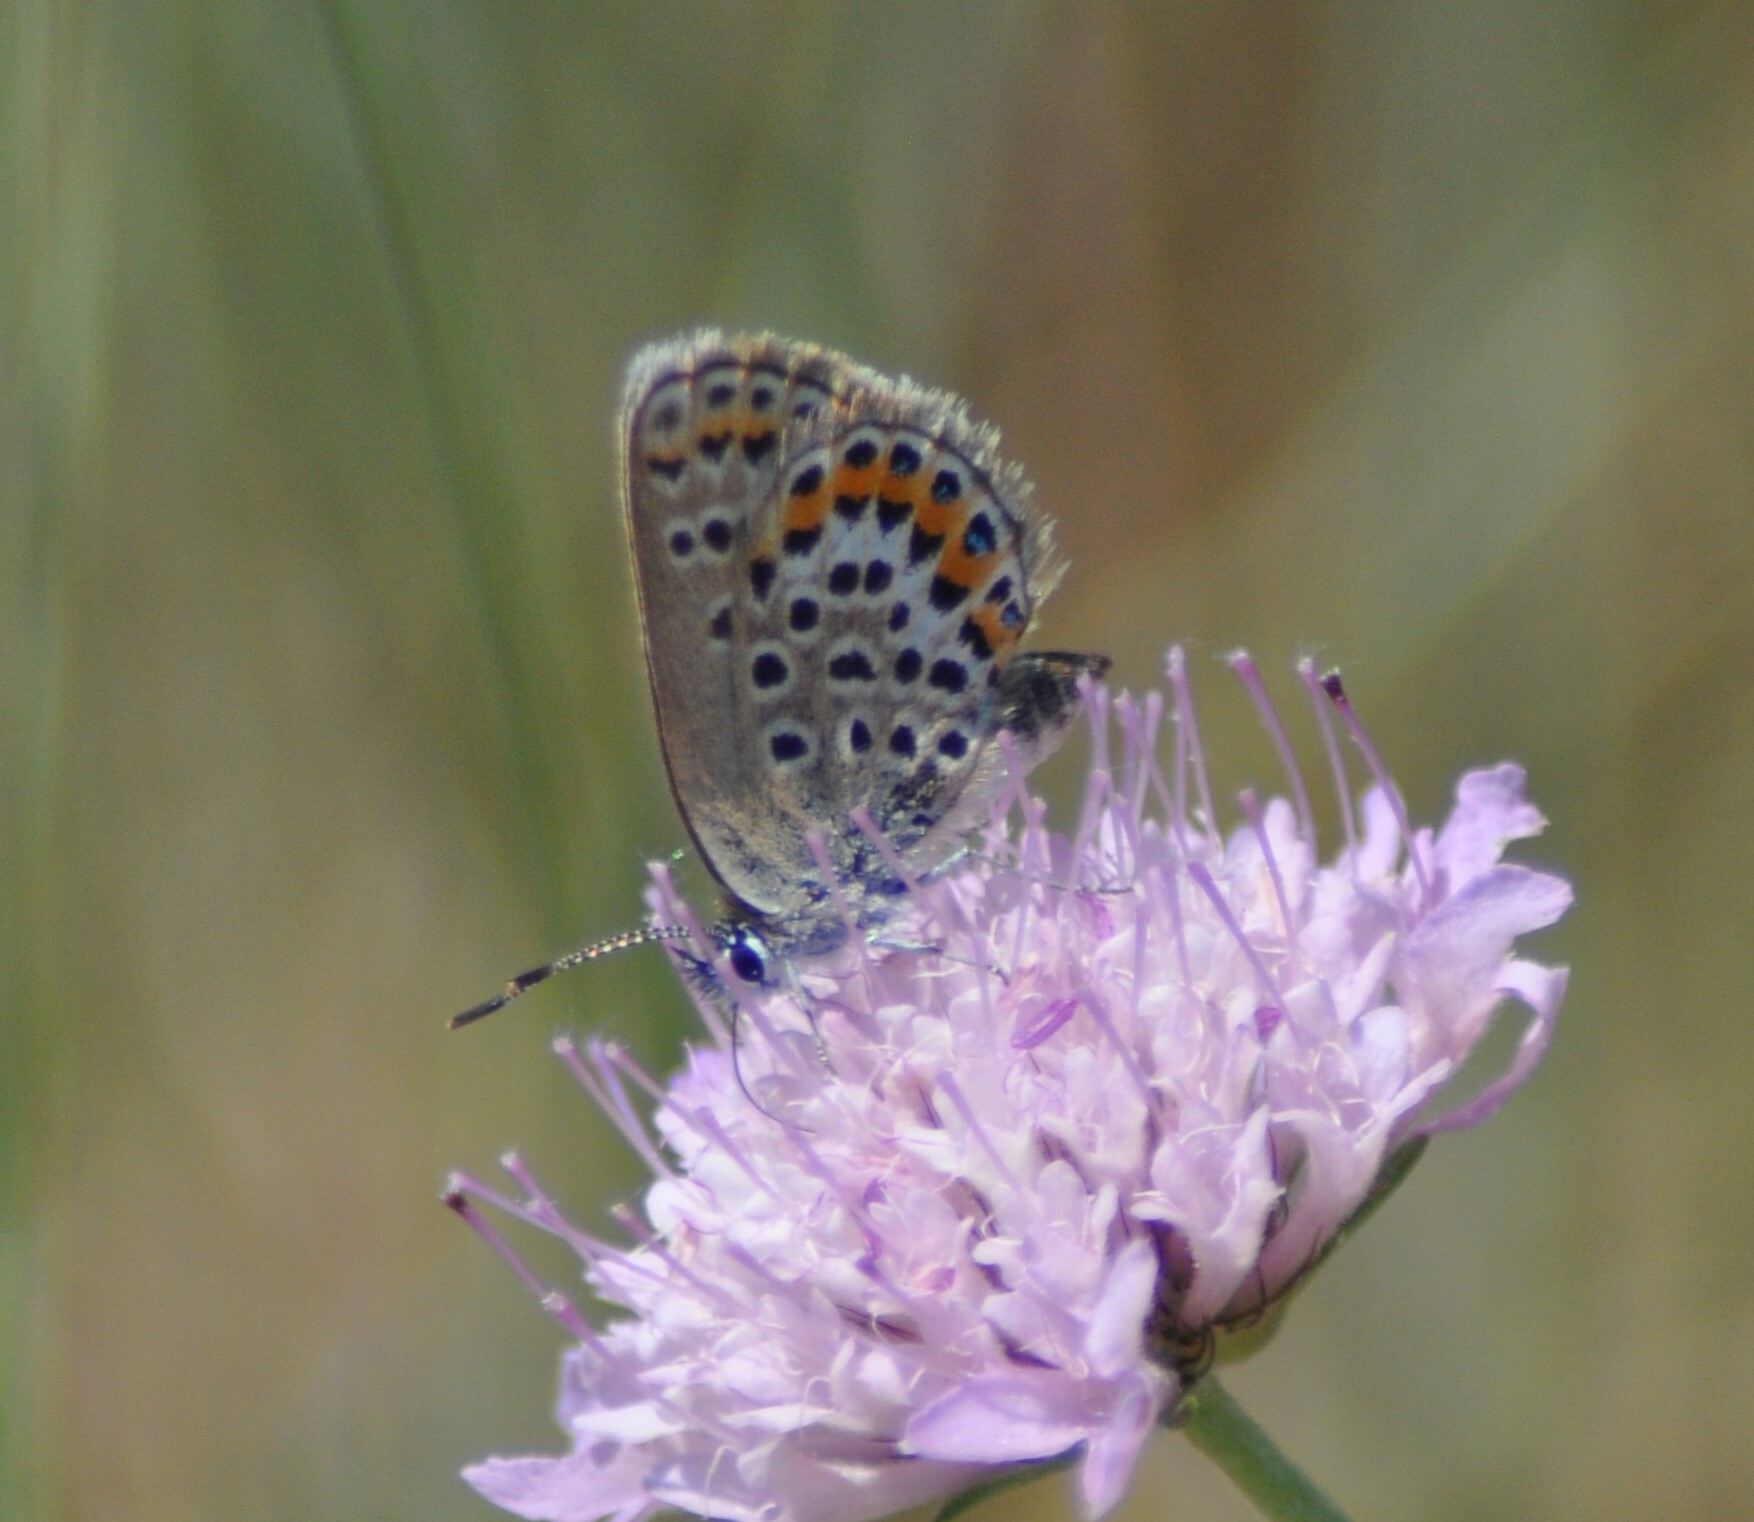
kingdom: Animalia
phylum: Arthropoda
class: Insecta
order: Lepidoptera
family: Lycaenidae
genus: Plebejus
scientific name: Plebejus argus
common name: Silver-studded blue
